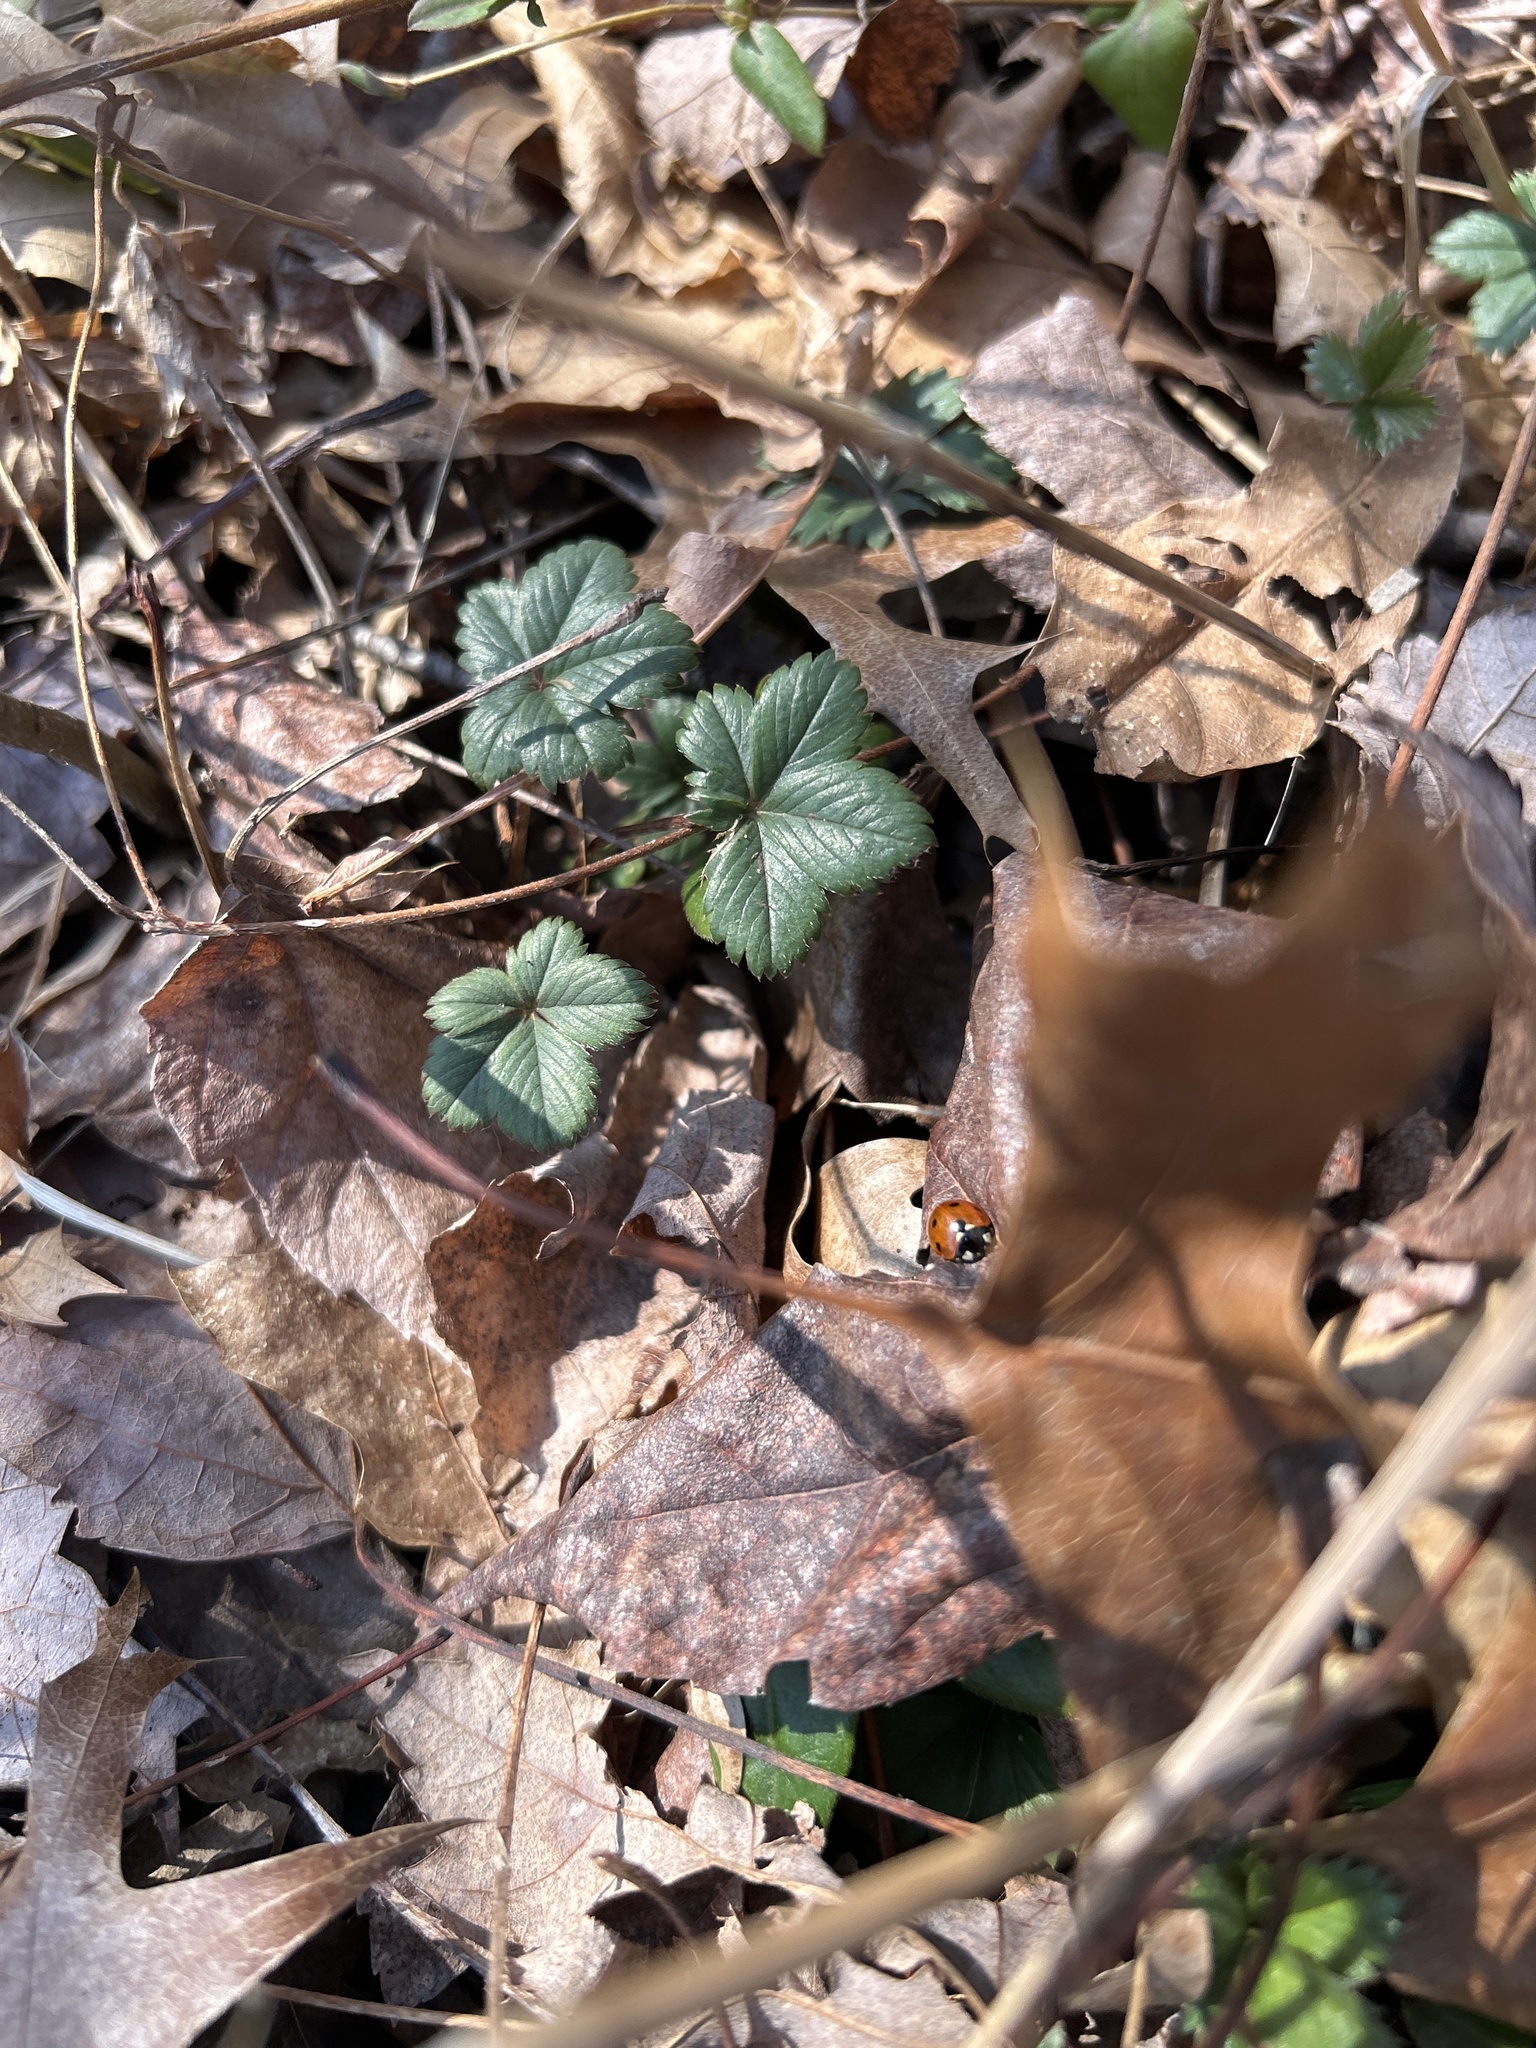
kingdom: Plantae
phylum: Tracheophyta
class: Magnoliopsida
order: Rosales
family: Rosaceae
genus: Potentilla
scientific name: Potentilla canadensis
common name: Canada cinquefoil
